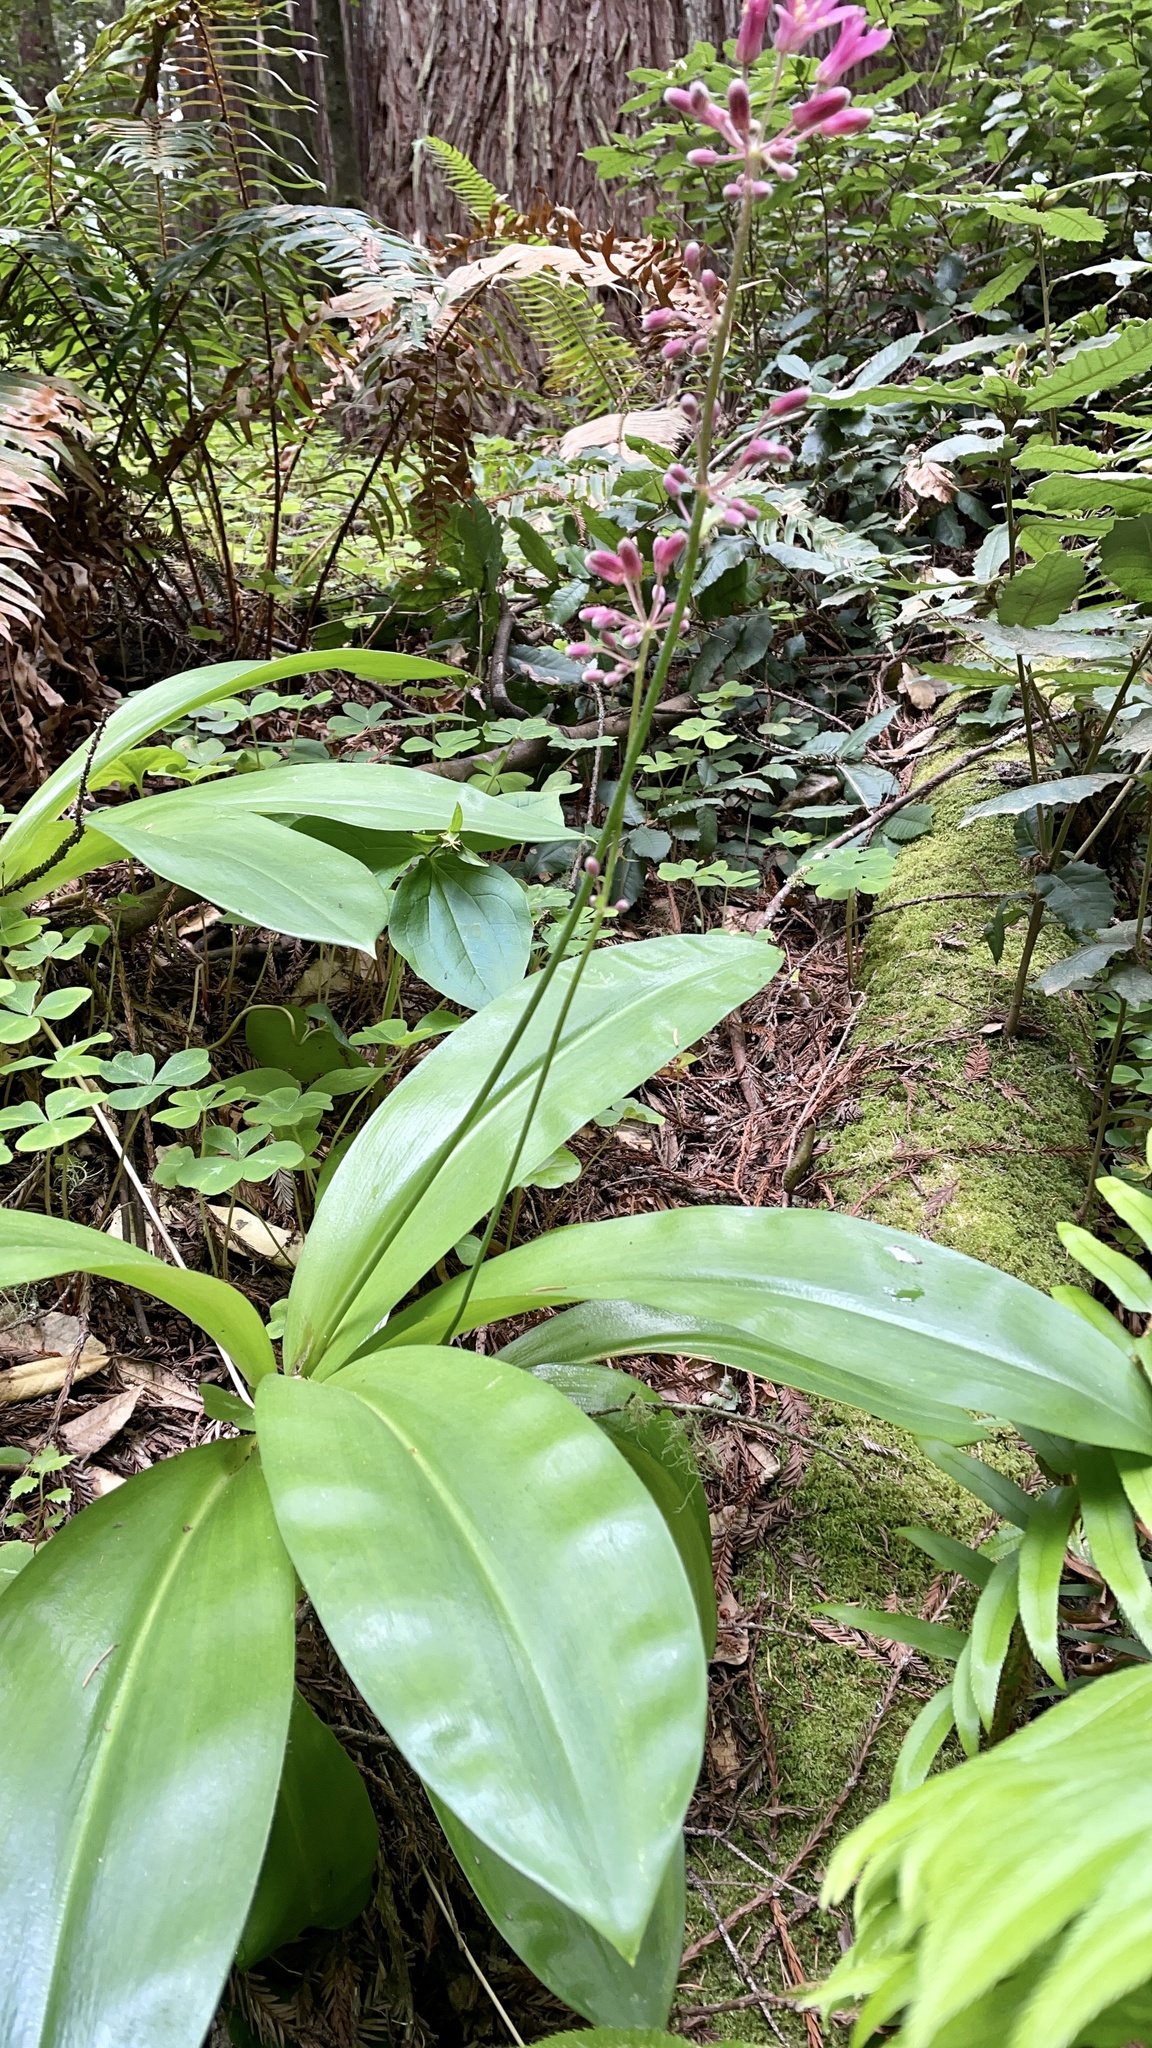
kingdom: Plantae
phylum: Tracheophyta
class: Liliopsida
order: Liliales
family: Liliaceae
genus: Clintonia
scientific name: Clintonia andrewsiana
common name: Red clintonia
